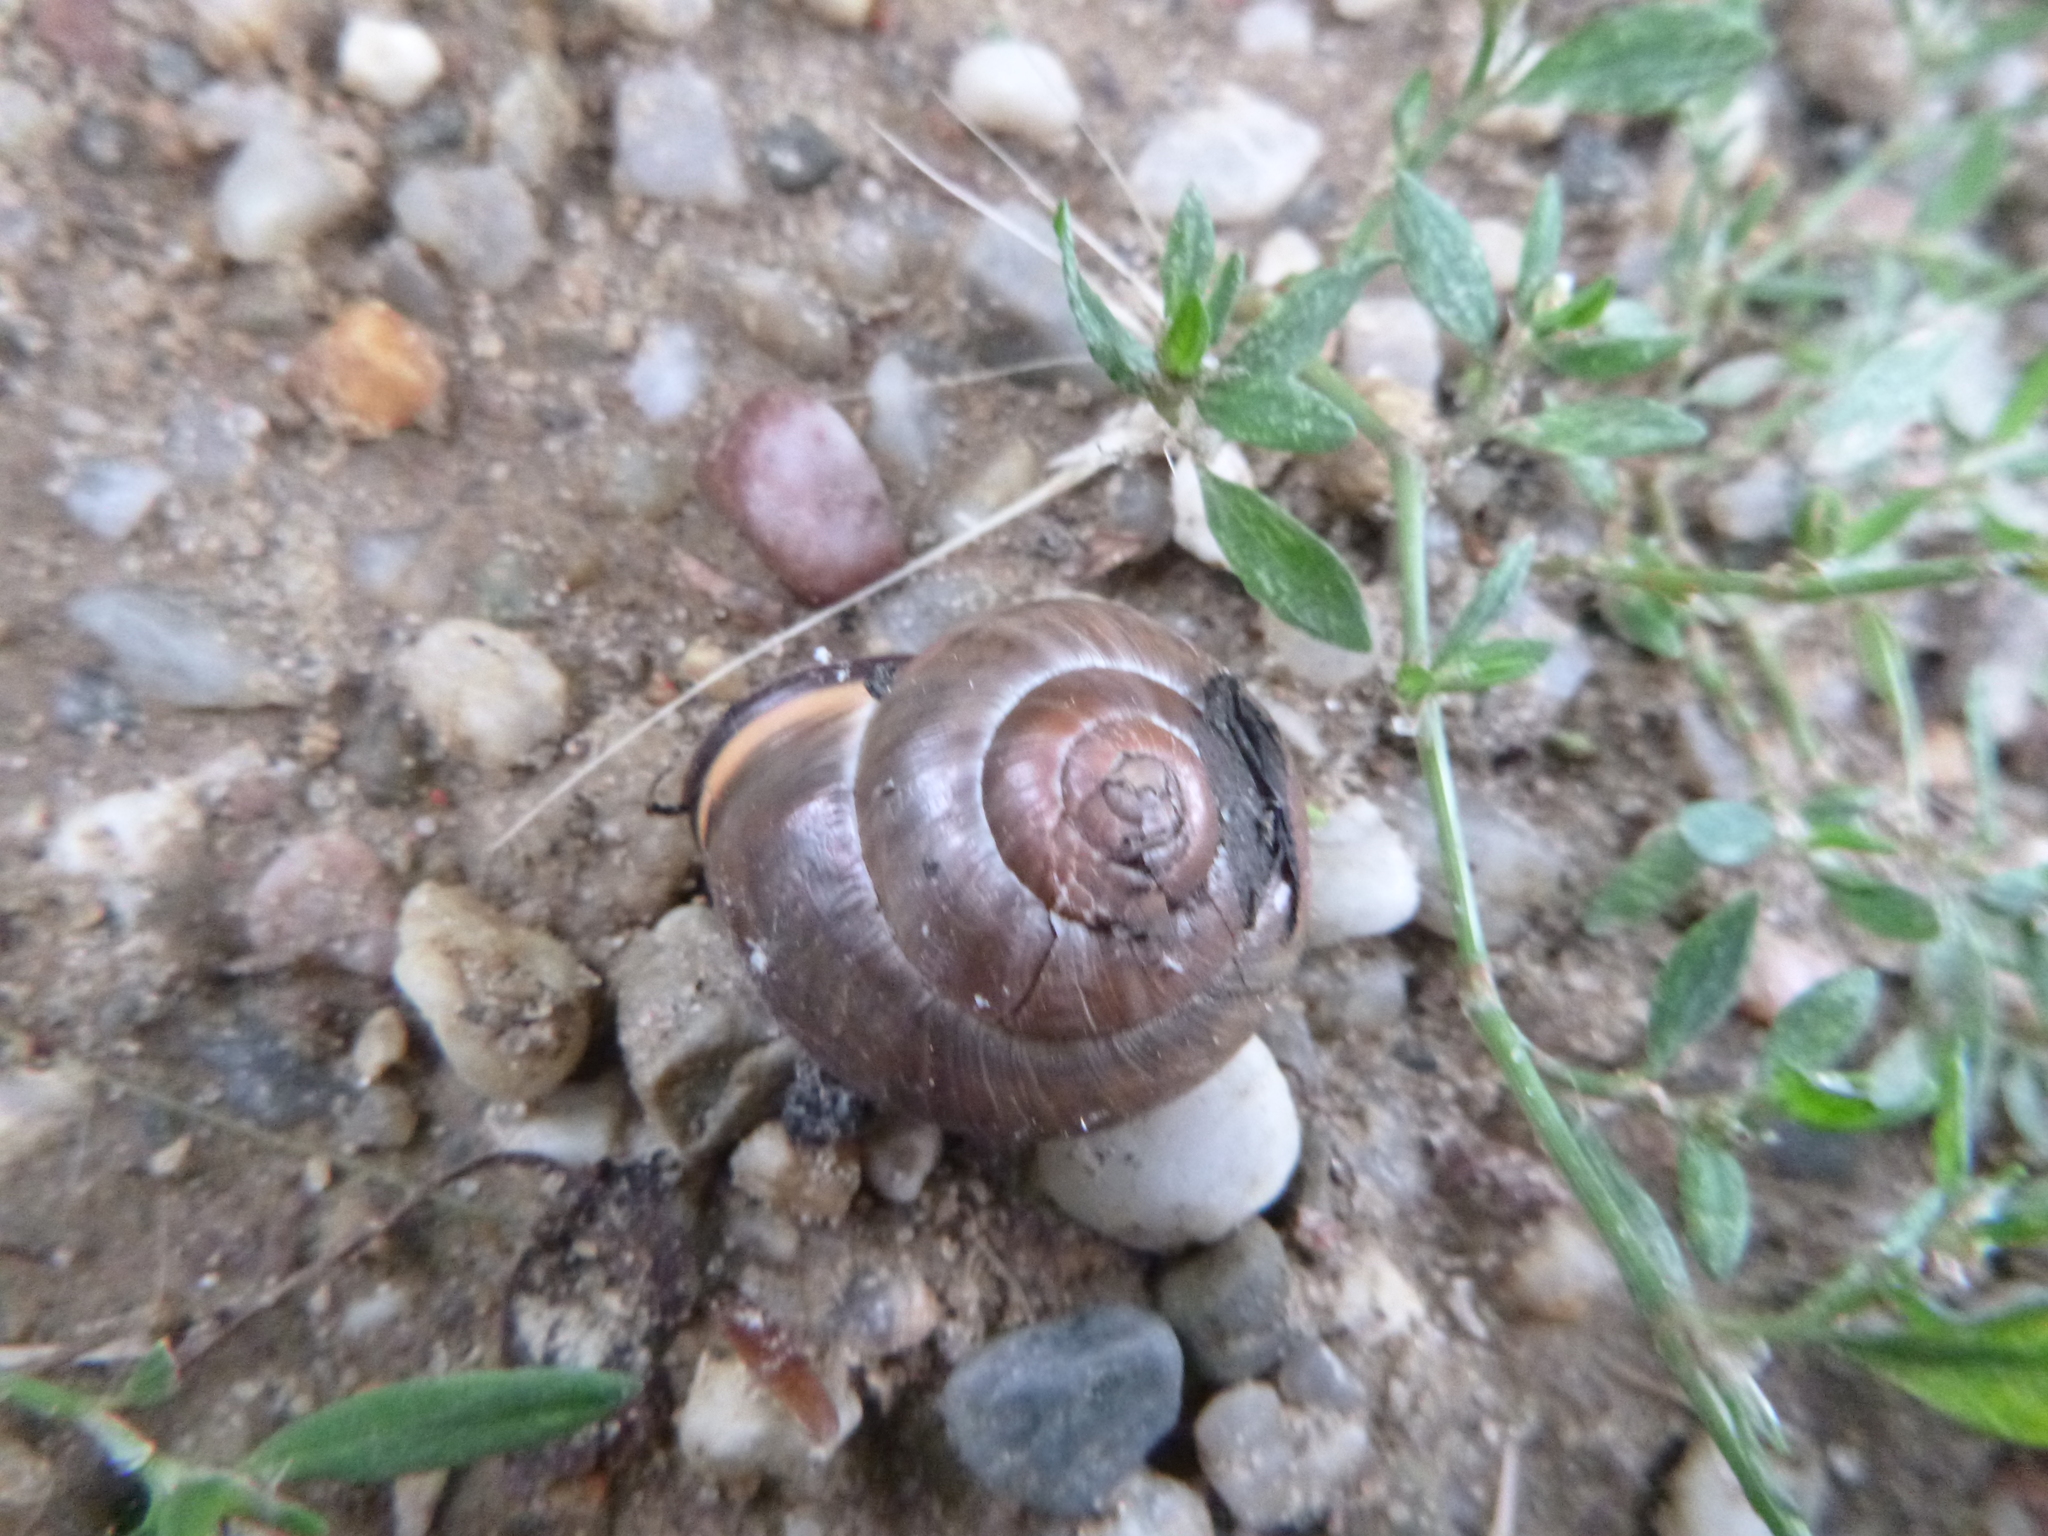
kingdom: Animalia
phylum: Mollusca
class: Gastropoda
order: Stylommatophora
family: Helicidae
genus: Cepaea
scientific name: Cepaea nemoralis
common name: Grovesnail
